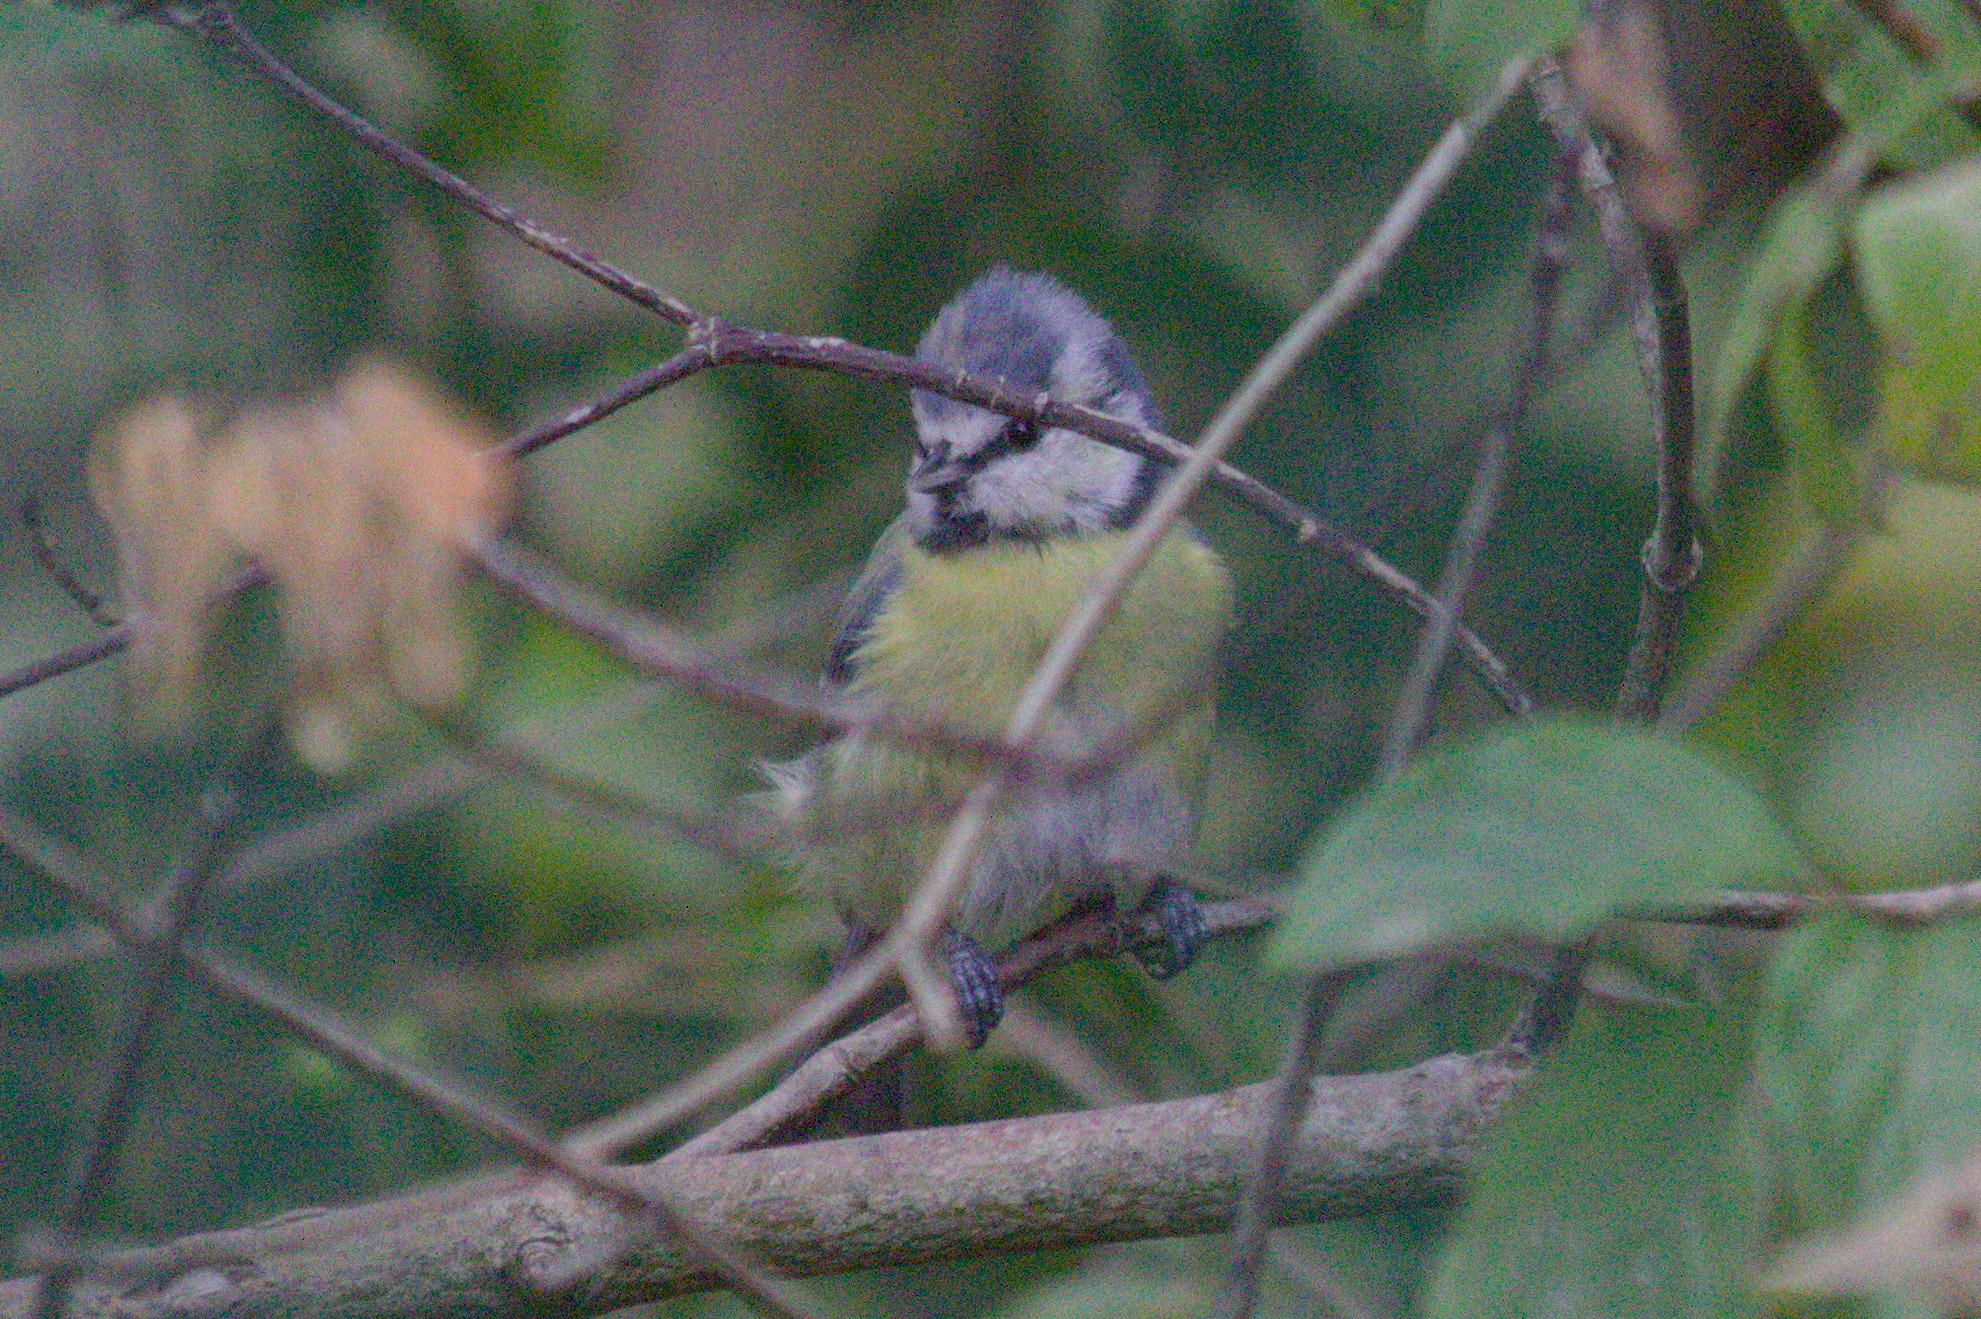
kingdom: Animalia
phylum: Chordata
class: Aves
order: Passeriformes
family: Paridae
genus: Cyanistes
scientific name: Cyanistes caeruleus
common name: Eurasian blue tit
